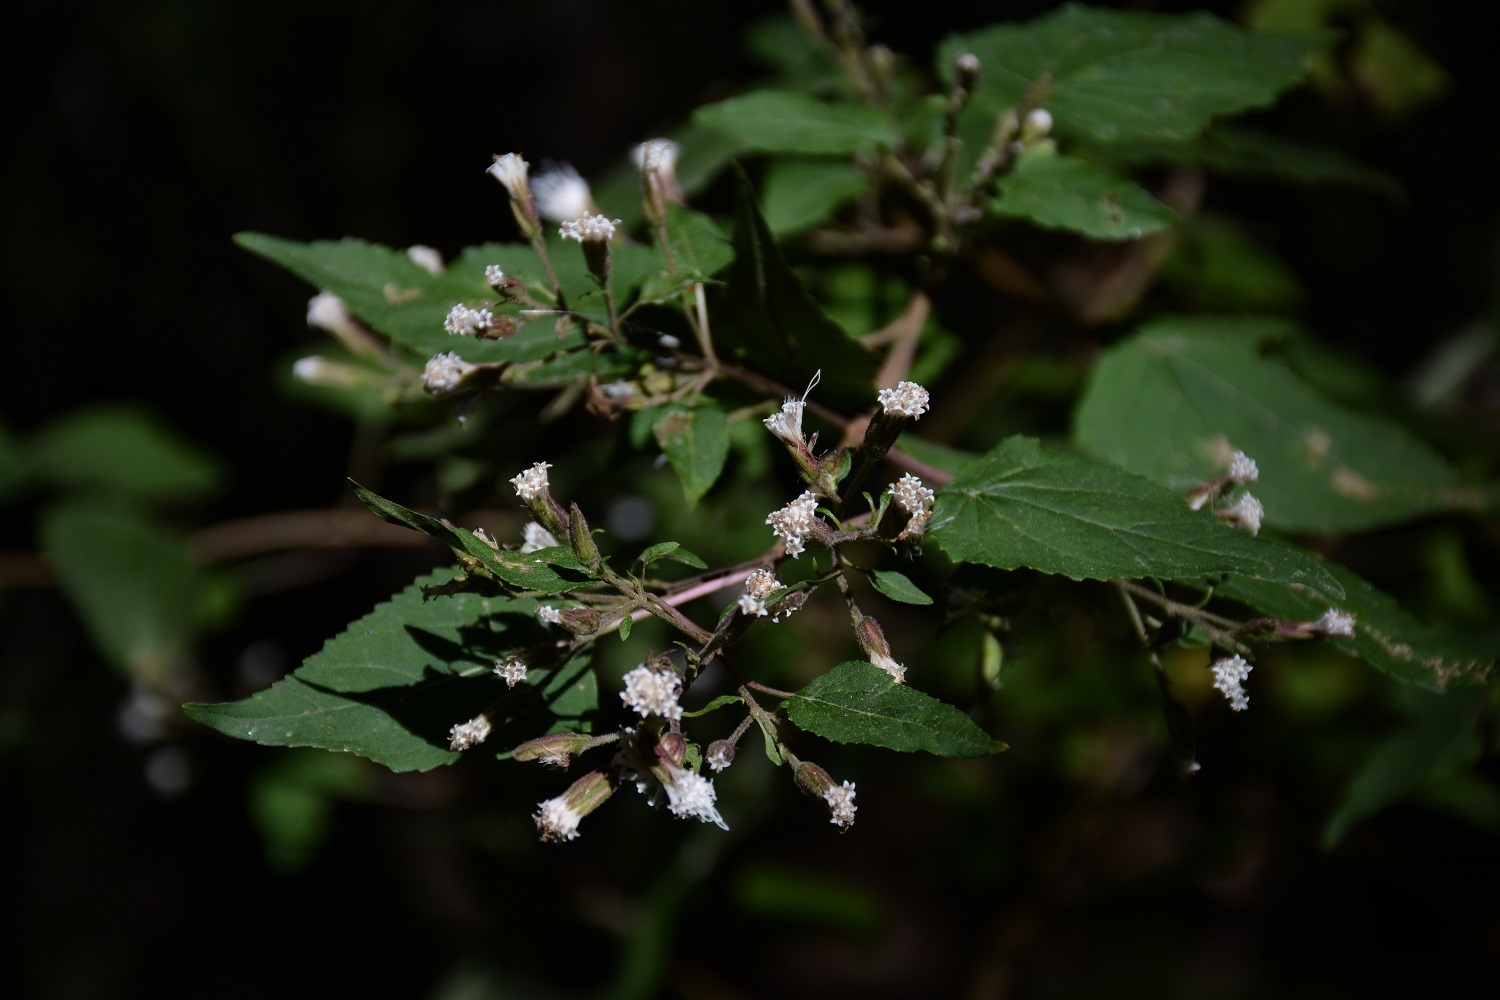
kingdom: Plantae
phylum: Tracheophyta
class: Magnoliopsida
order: Asterales
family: Asteraceae
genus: Ageratina
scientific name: Ageratina mairetiana
